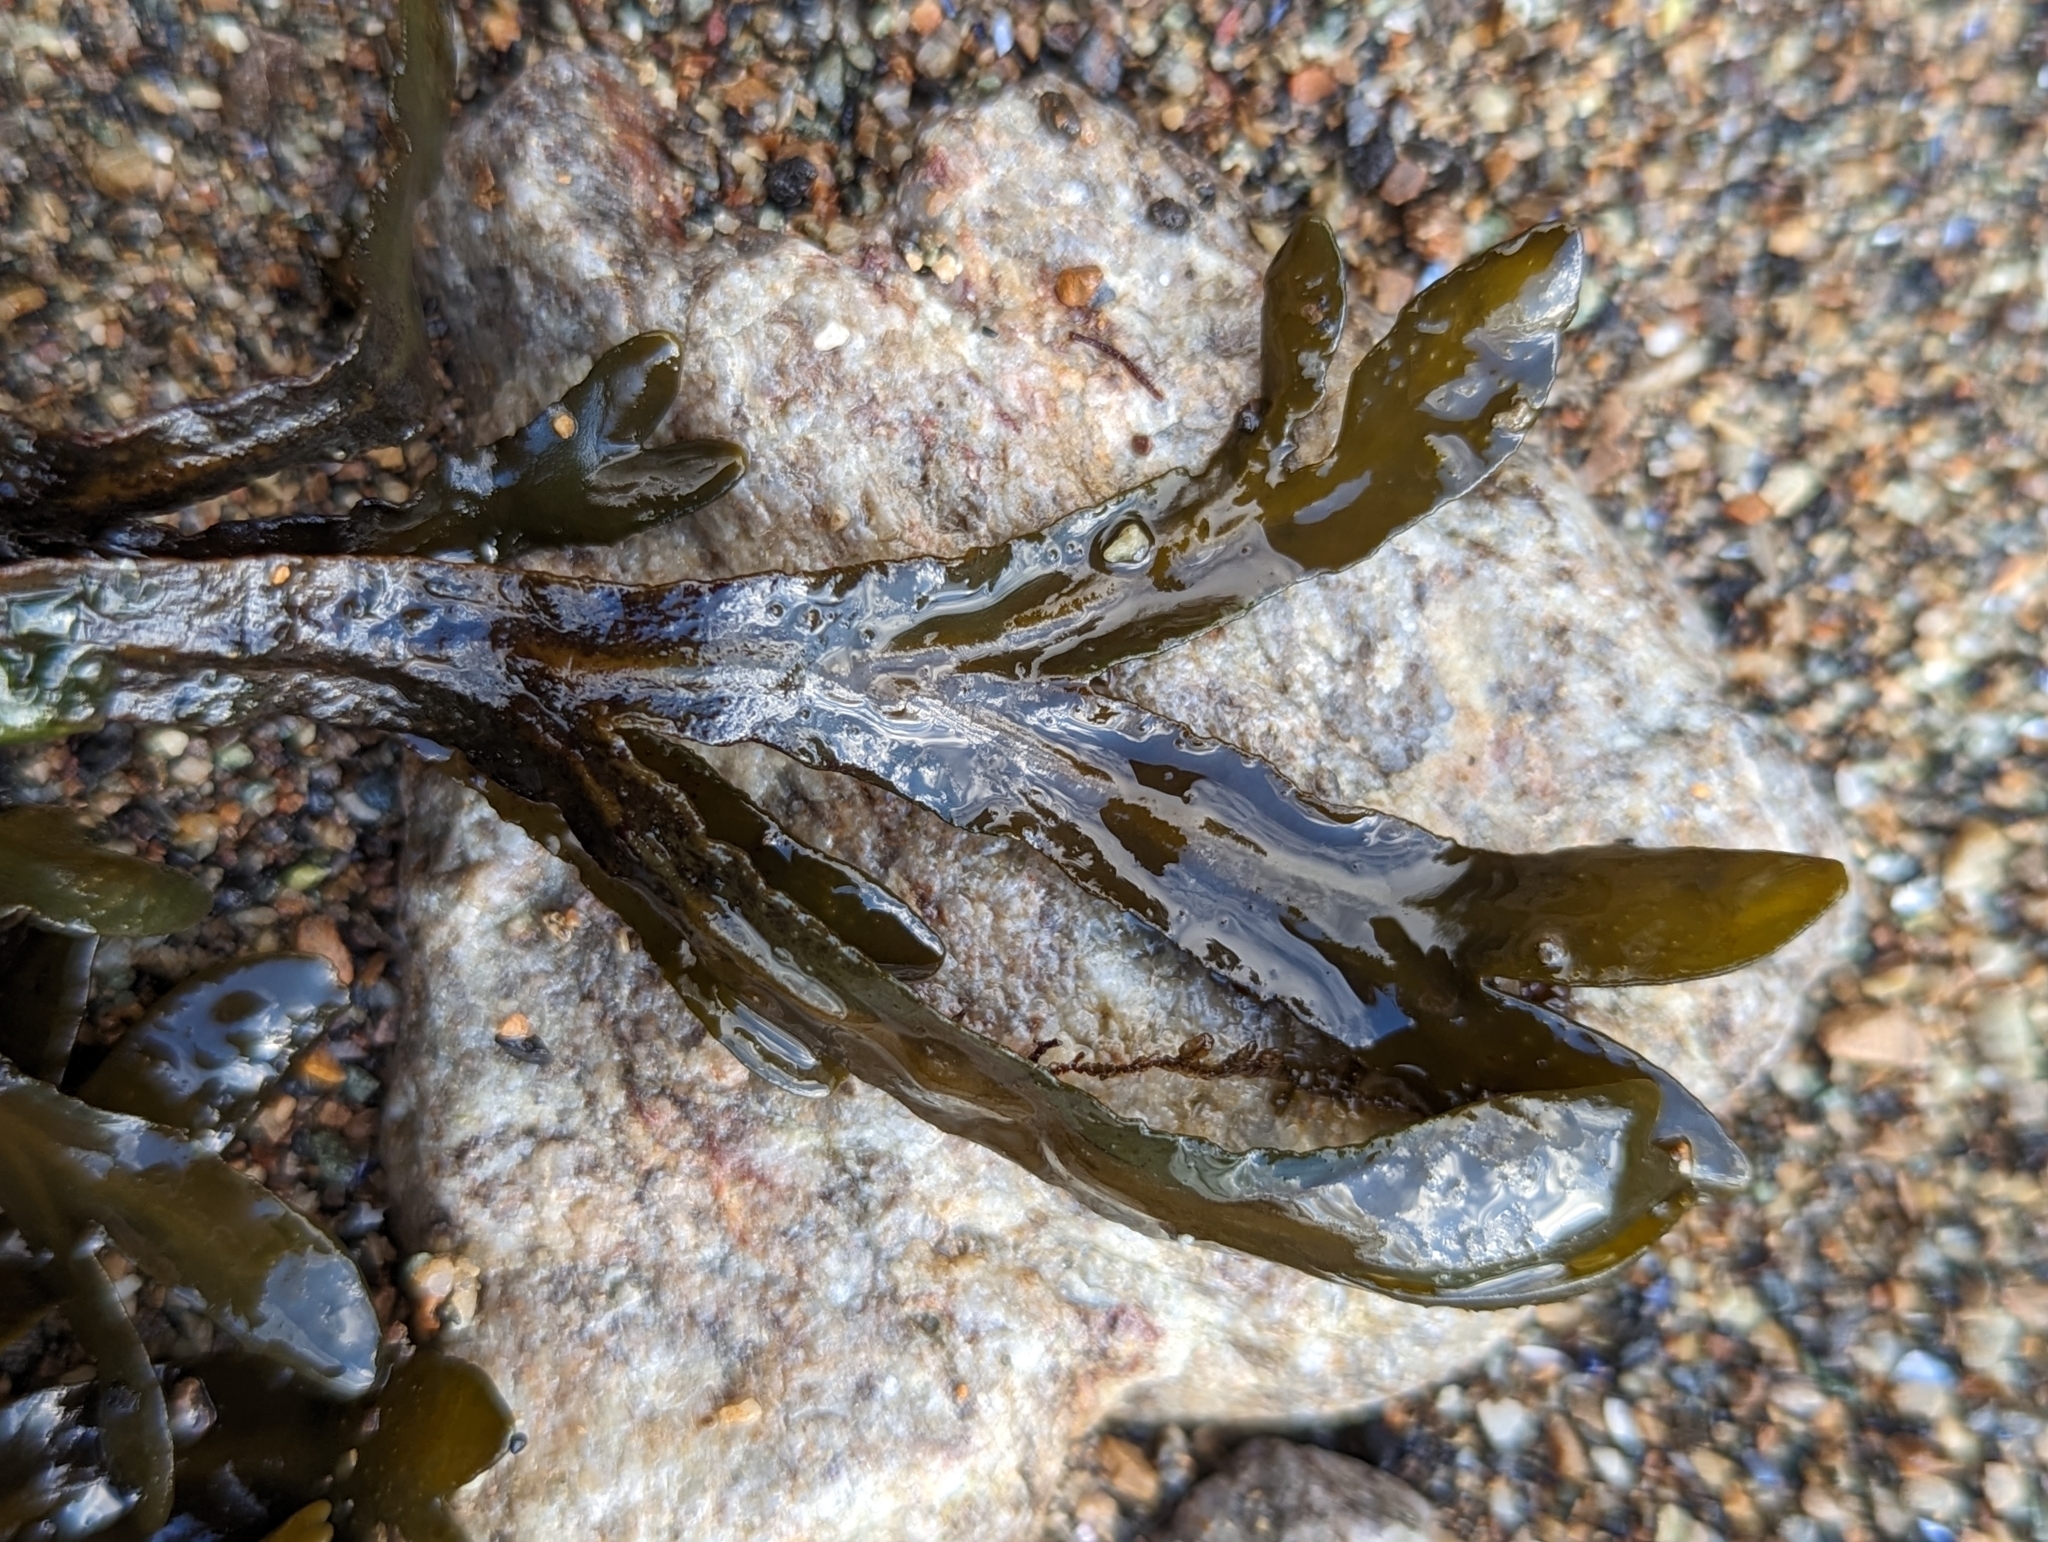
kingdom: Chromista
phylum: Ochrophyta
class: Phaeophyceae
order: Fucales
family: Fucaceae
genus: Fucus
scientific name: Fucus distichus
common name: Rockweed
